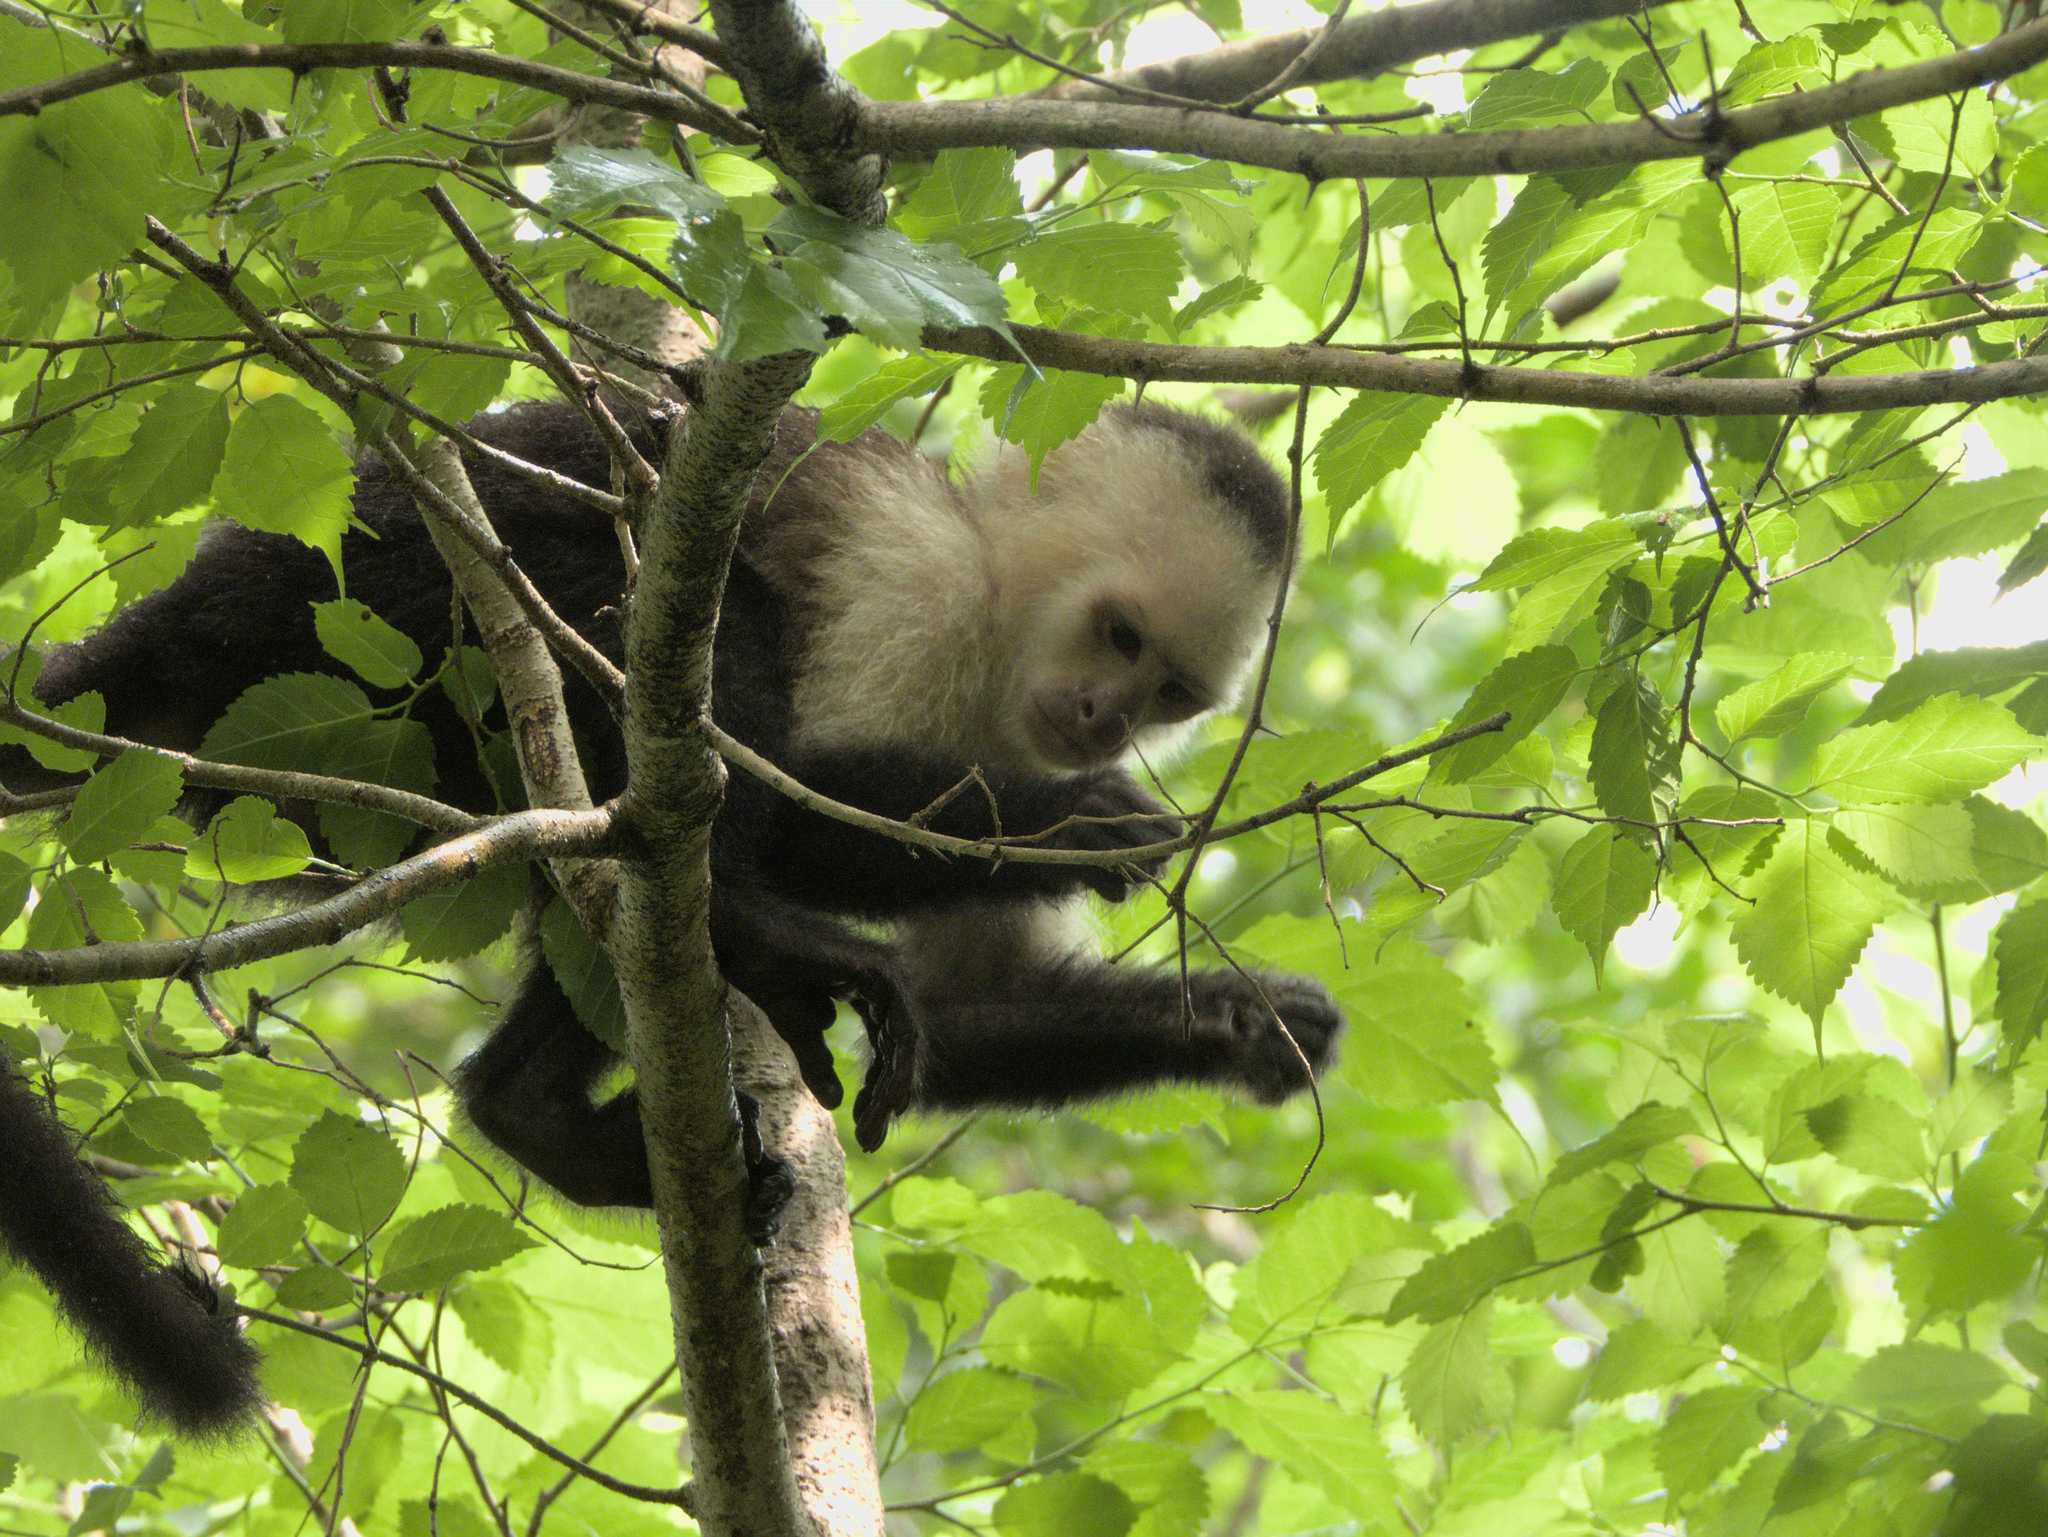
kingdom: Animalia
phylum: Chordata
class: Mammalia
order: Primates
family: Cebidae
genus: Cebus
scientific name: Cebus imitator
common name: Panamanian white-faced capuchin
